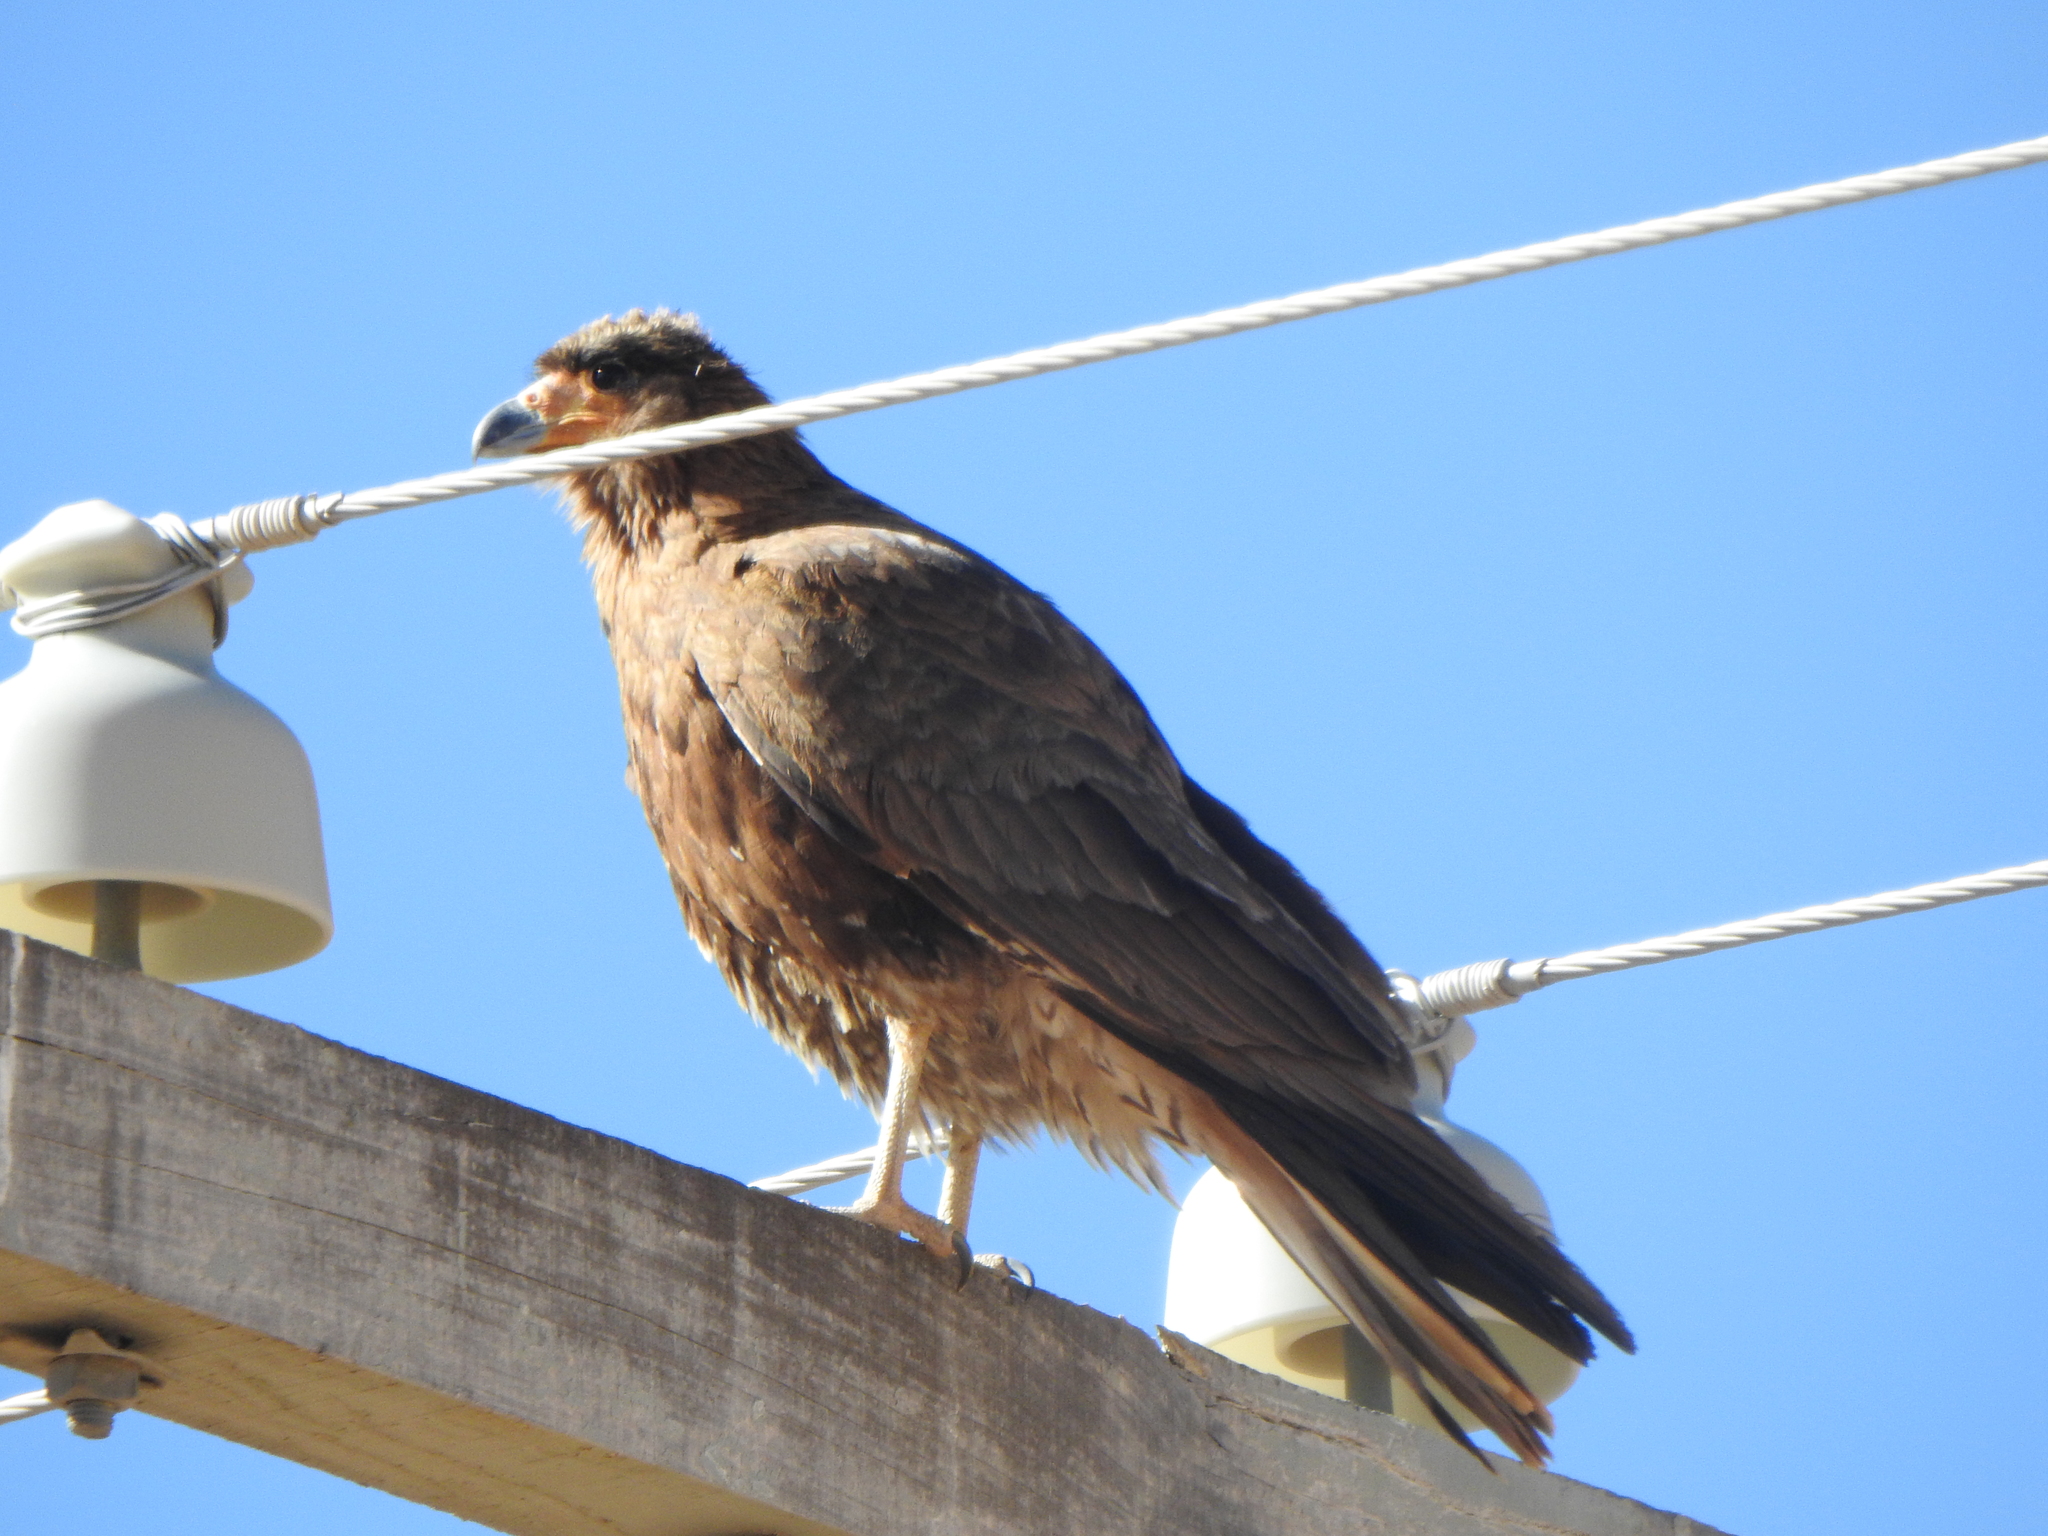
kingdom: Animalia
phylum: Chordata
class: Aves
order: Falconiformes
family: Falconidae
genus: Daptrius
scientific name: Daptrius
